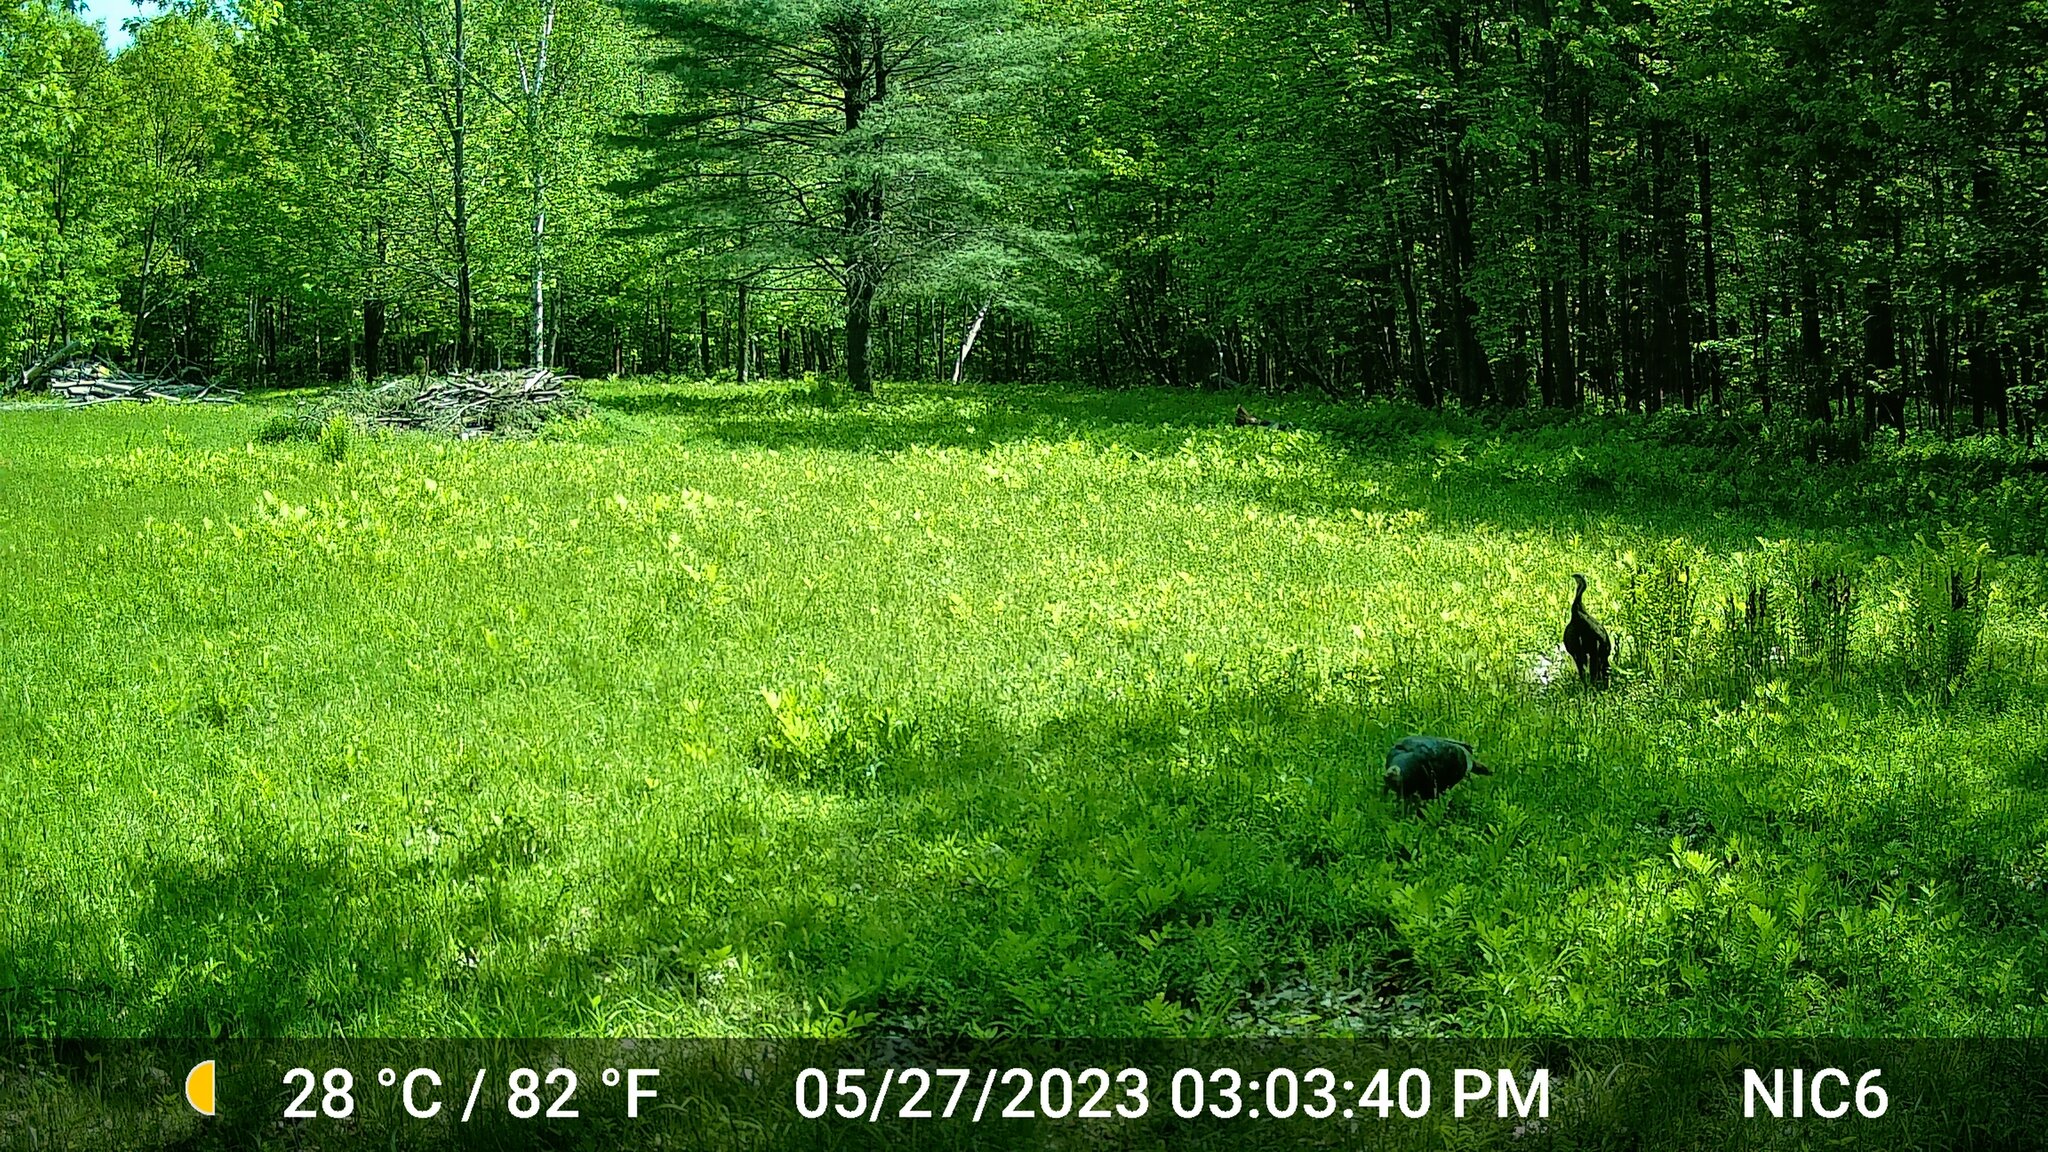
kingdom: Animalia
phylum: Chordata
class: Aves
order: Galliformes
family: Phasianidae
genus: Meleagris
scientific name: Meleagris gallopavo
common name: Wild turkey
